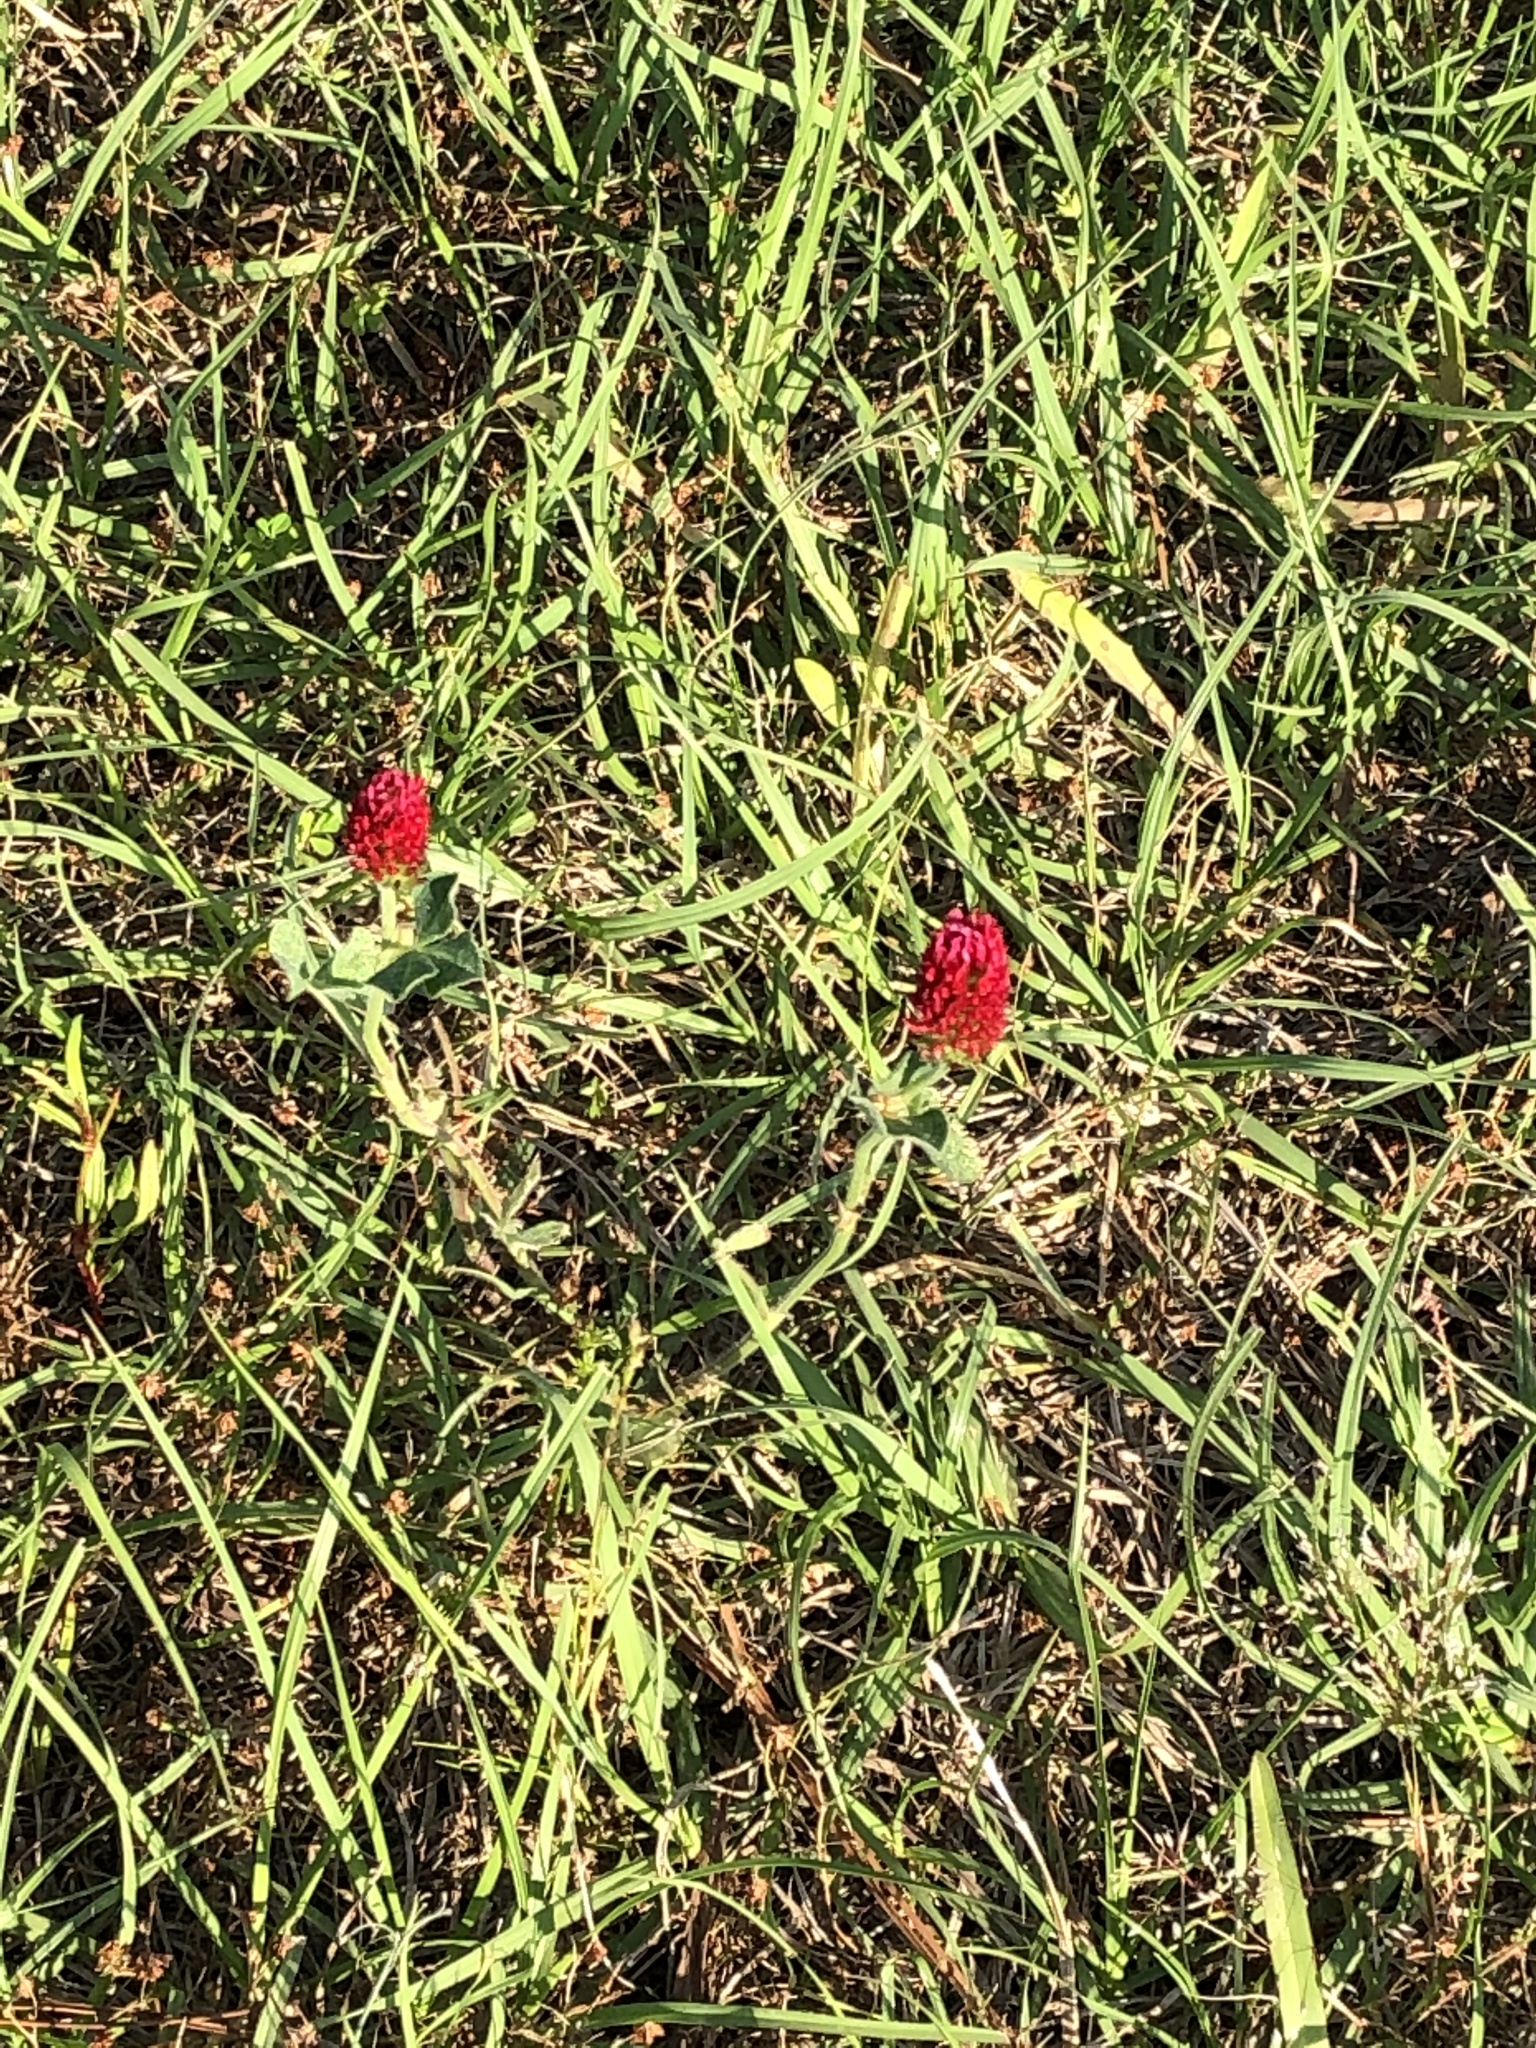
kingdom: Plantae
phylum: Tracheophyta
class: Magnoliopsida
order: Fabales
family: Fabaceae
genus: Trifolium
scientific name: Trifolium incarnatum
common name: Crimson clover
